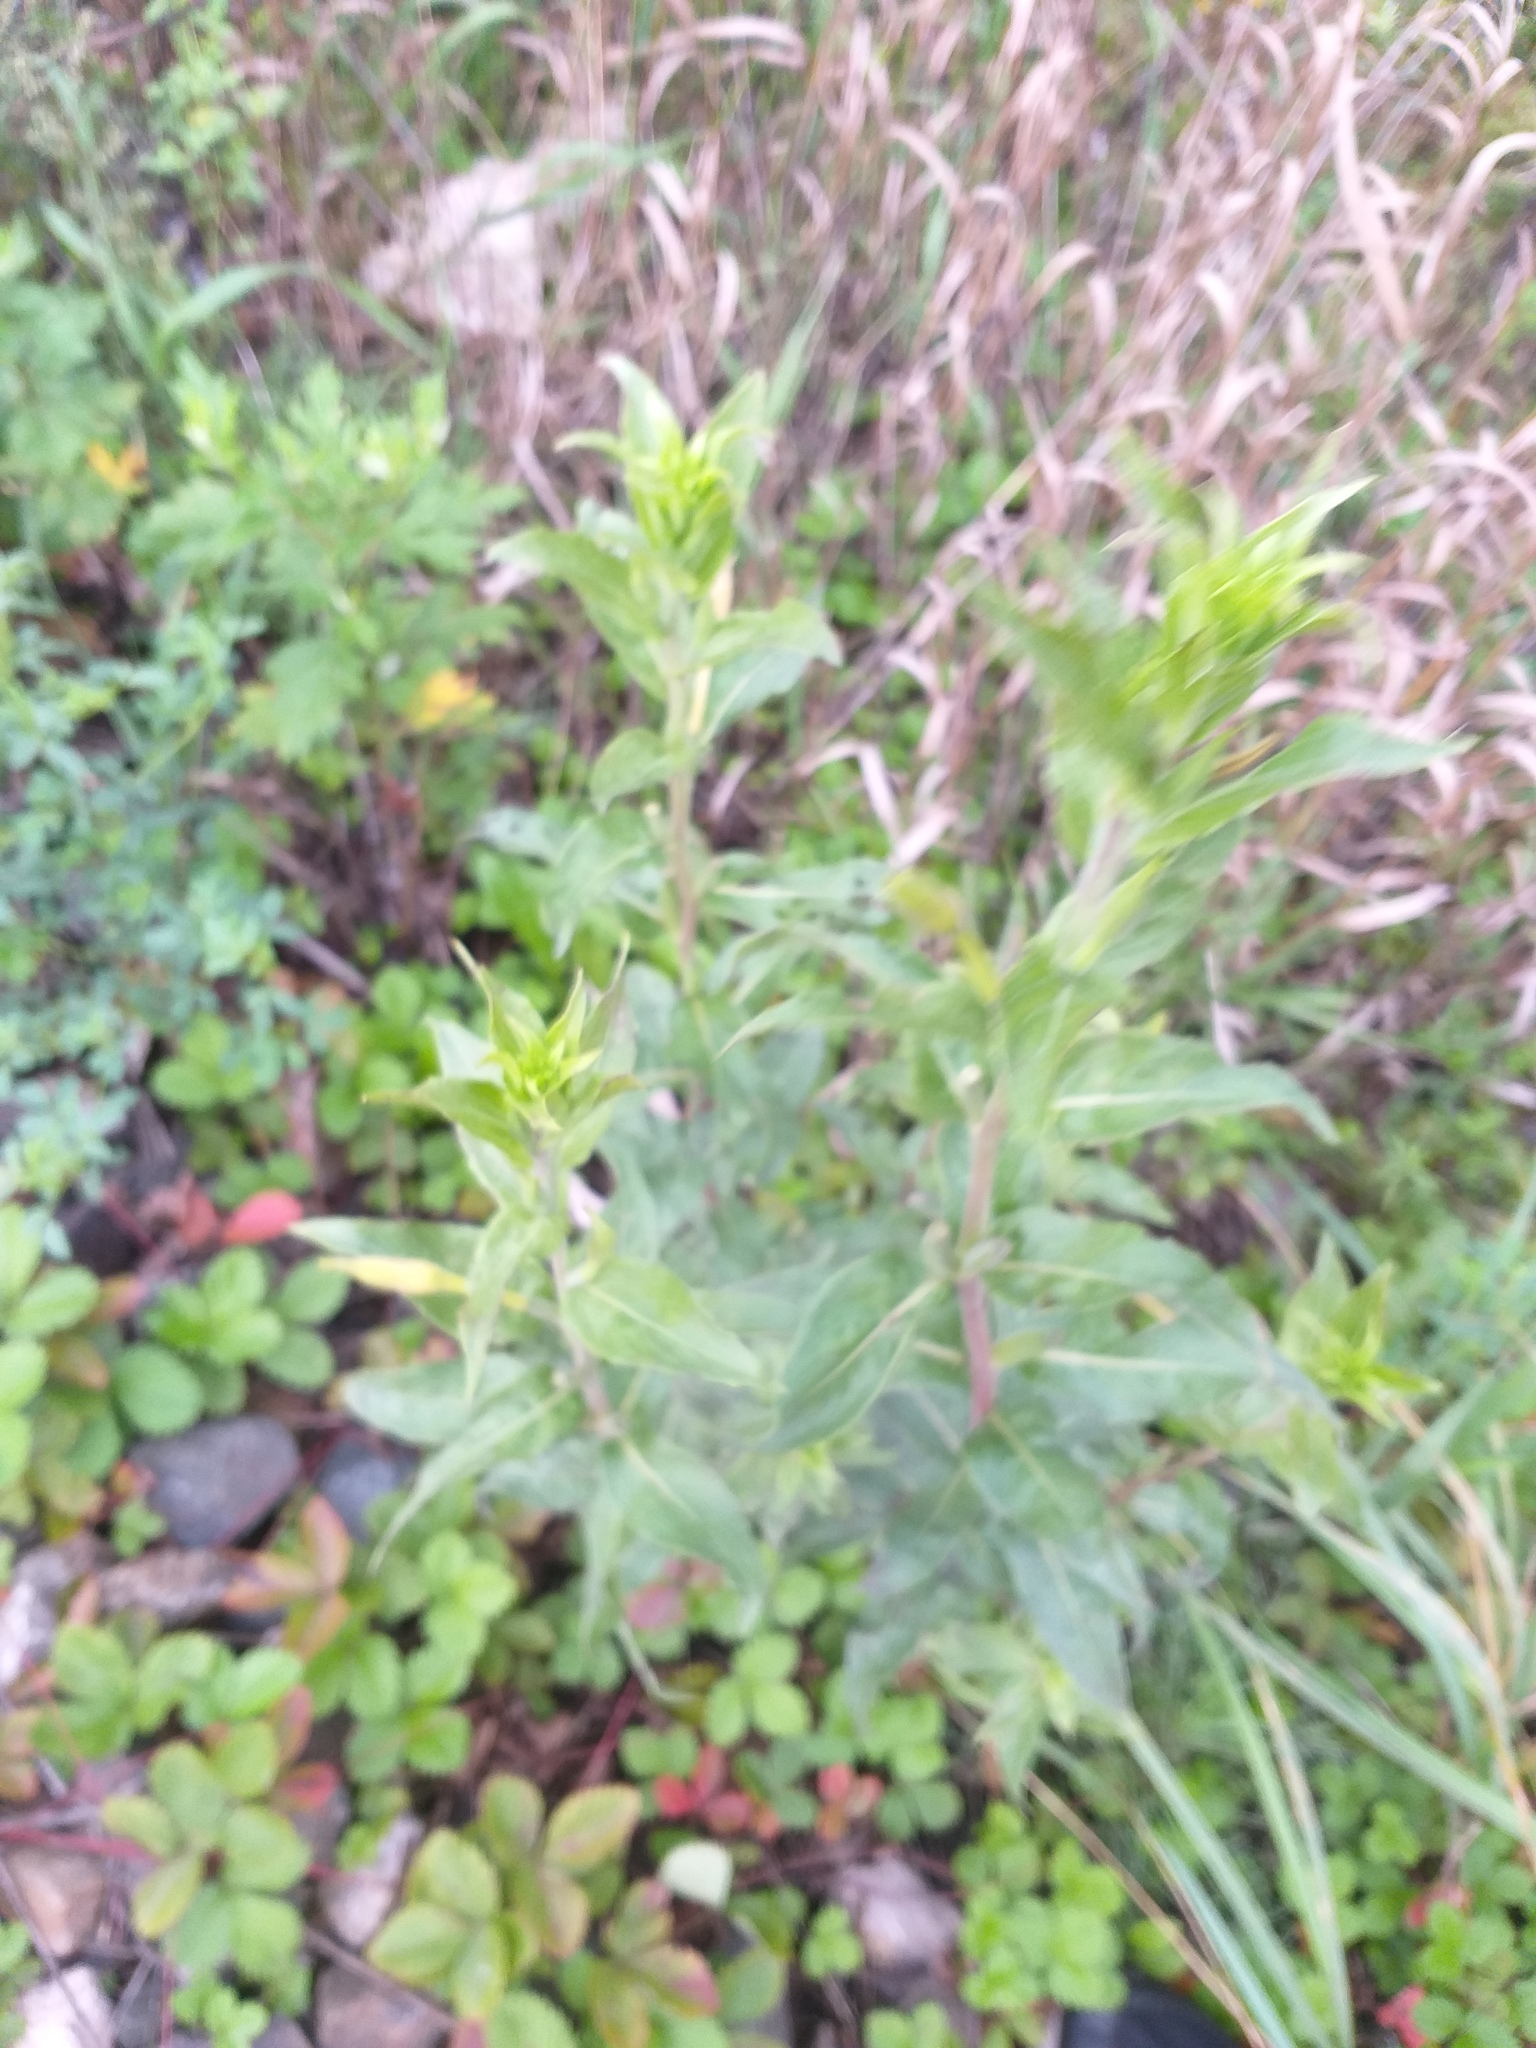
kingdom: Plantae
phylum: Tracheophyta
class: Magnoliopsida
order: Myrtales
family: Onagraceae
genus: Oenothera
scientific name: Oenothera villosa
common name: Hairy evening-primrose
